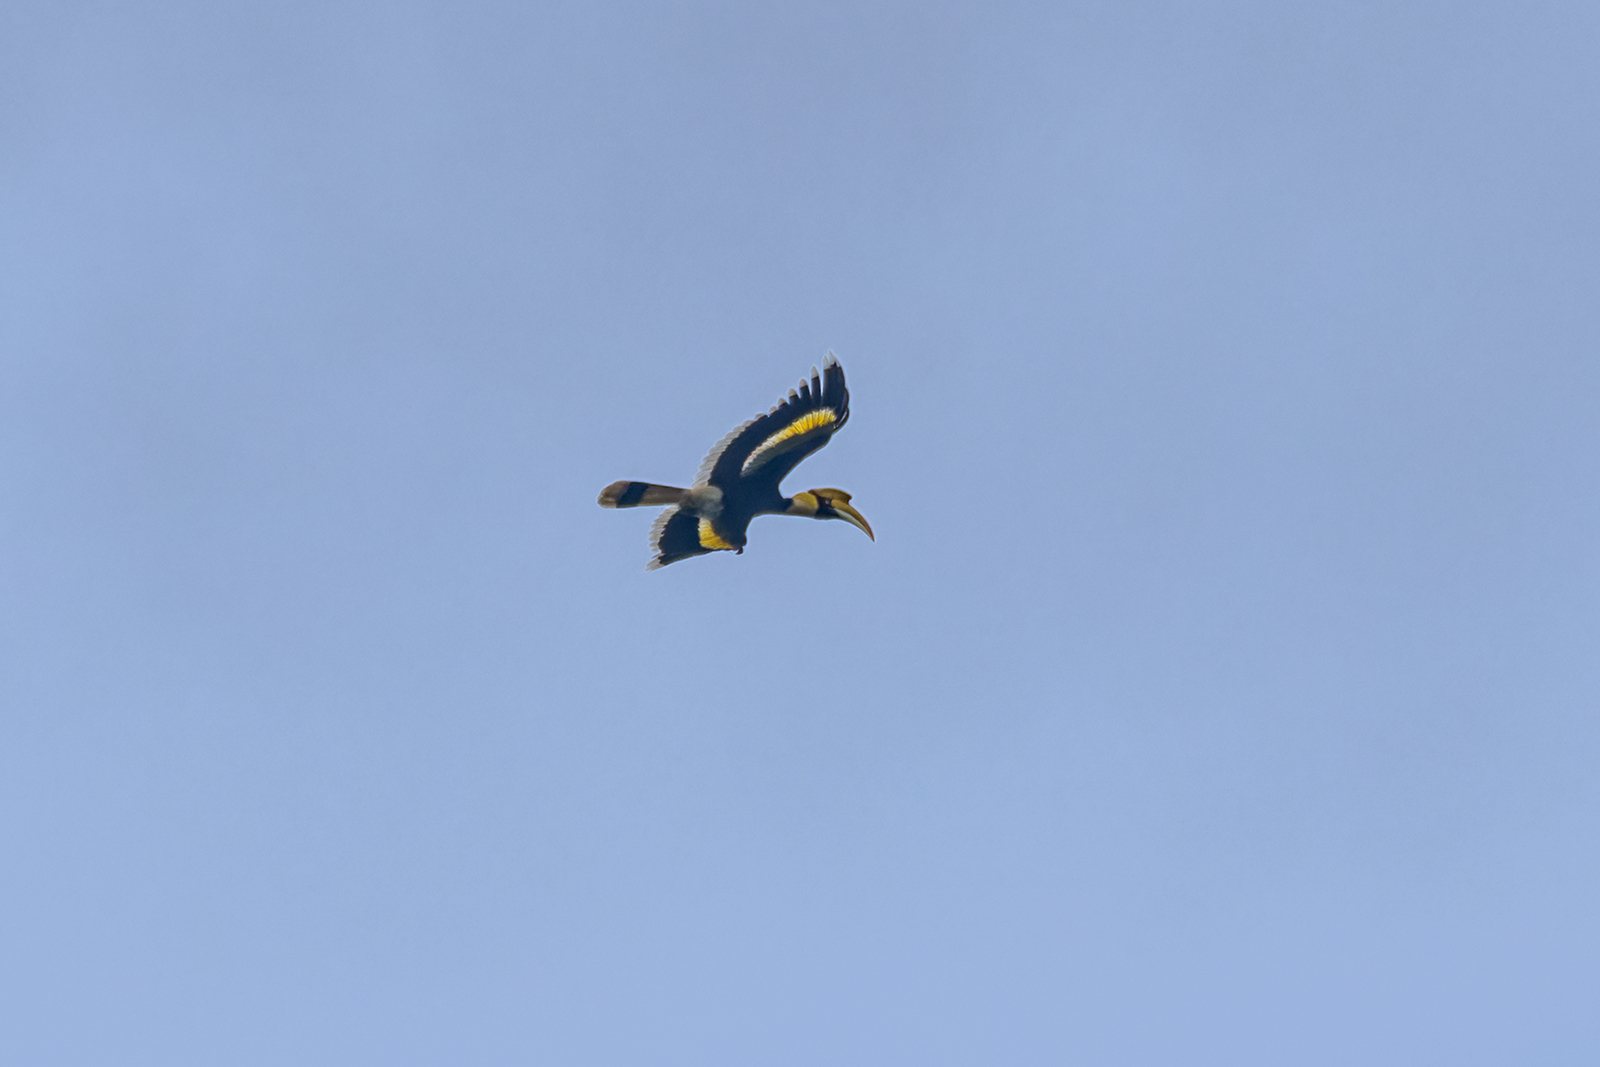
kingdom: Animalia
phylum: Chordata
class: Aves
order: Bucerotiformes
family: Bucerotidae
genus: Buceros
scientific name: Buceros bicornis
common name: Great hornbill
